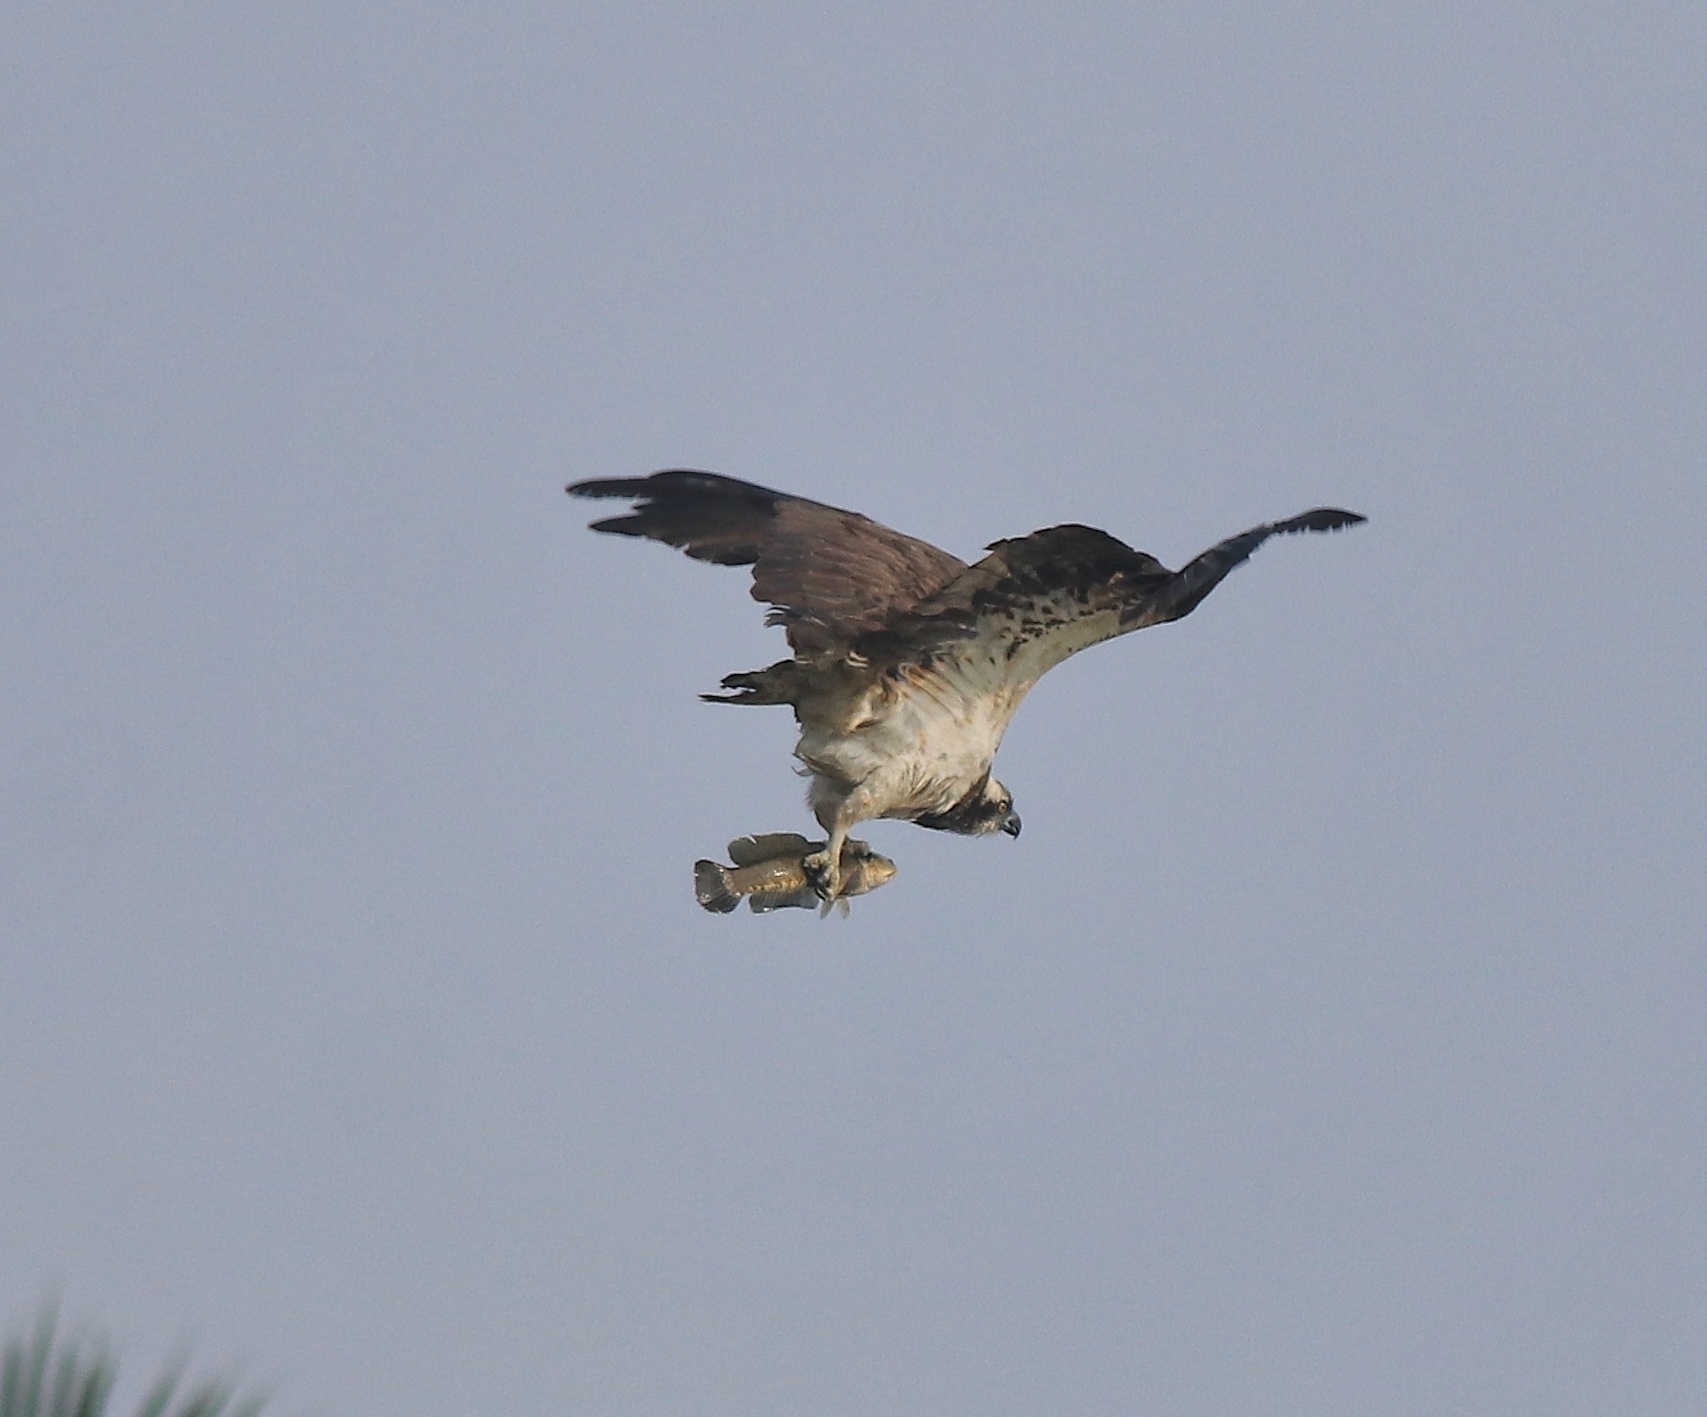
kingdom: Animalia
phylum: Chordata
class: Aves
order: Accipitriformes
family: Pandionidae
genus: Pandion
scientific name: Pandion haliaetus
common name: Osprey
